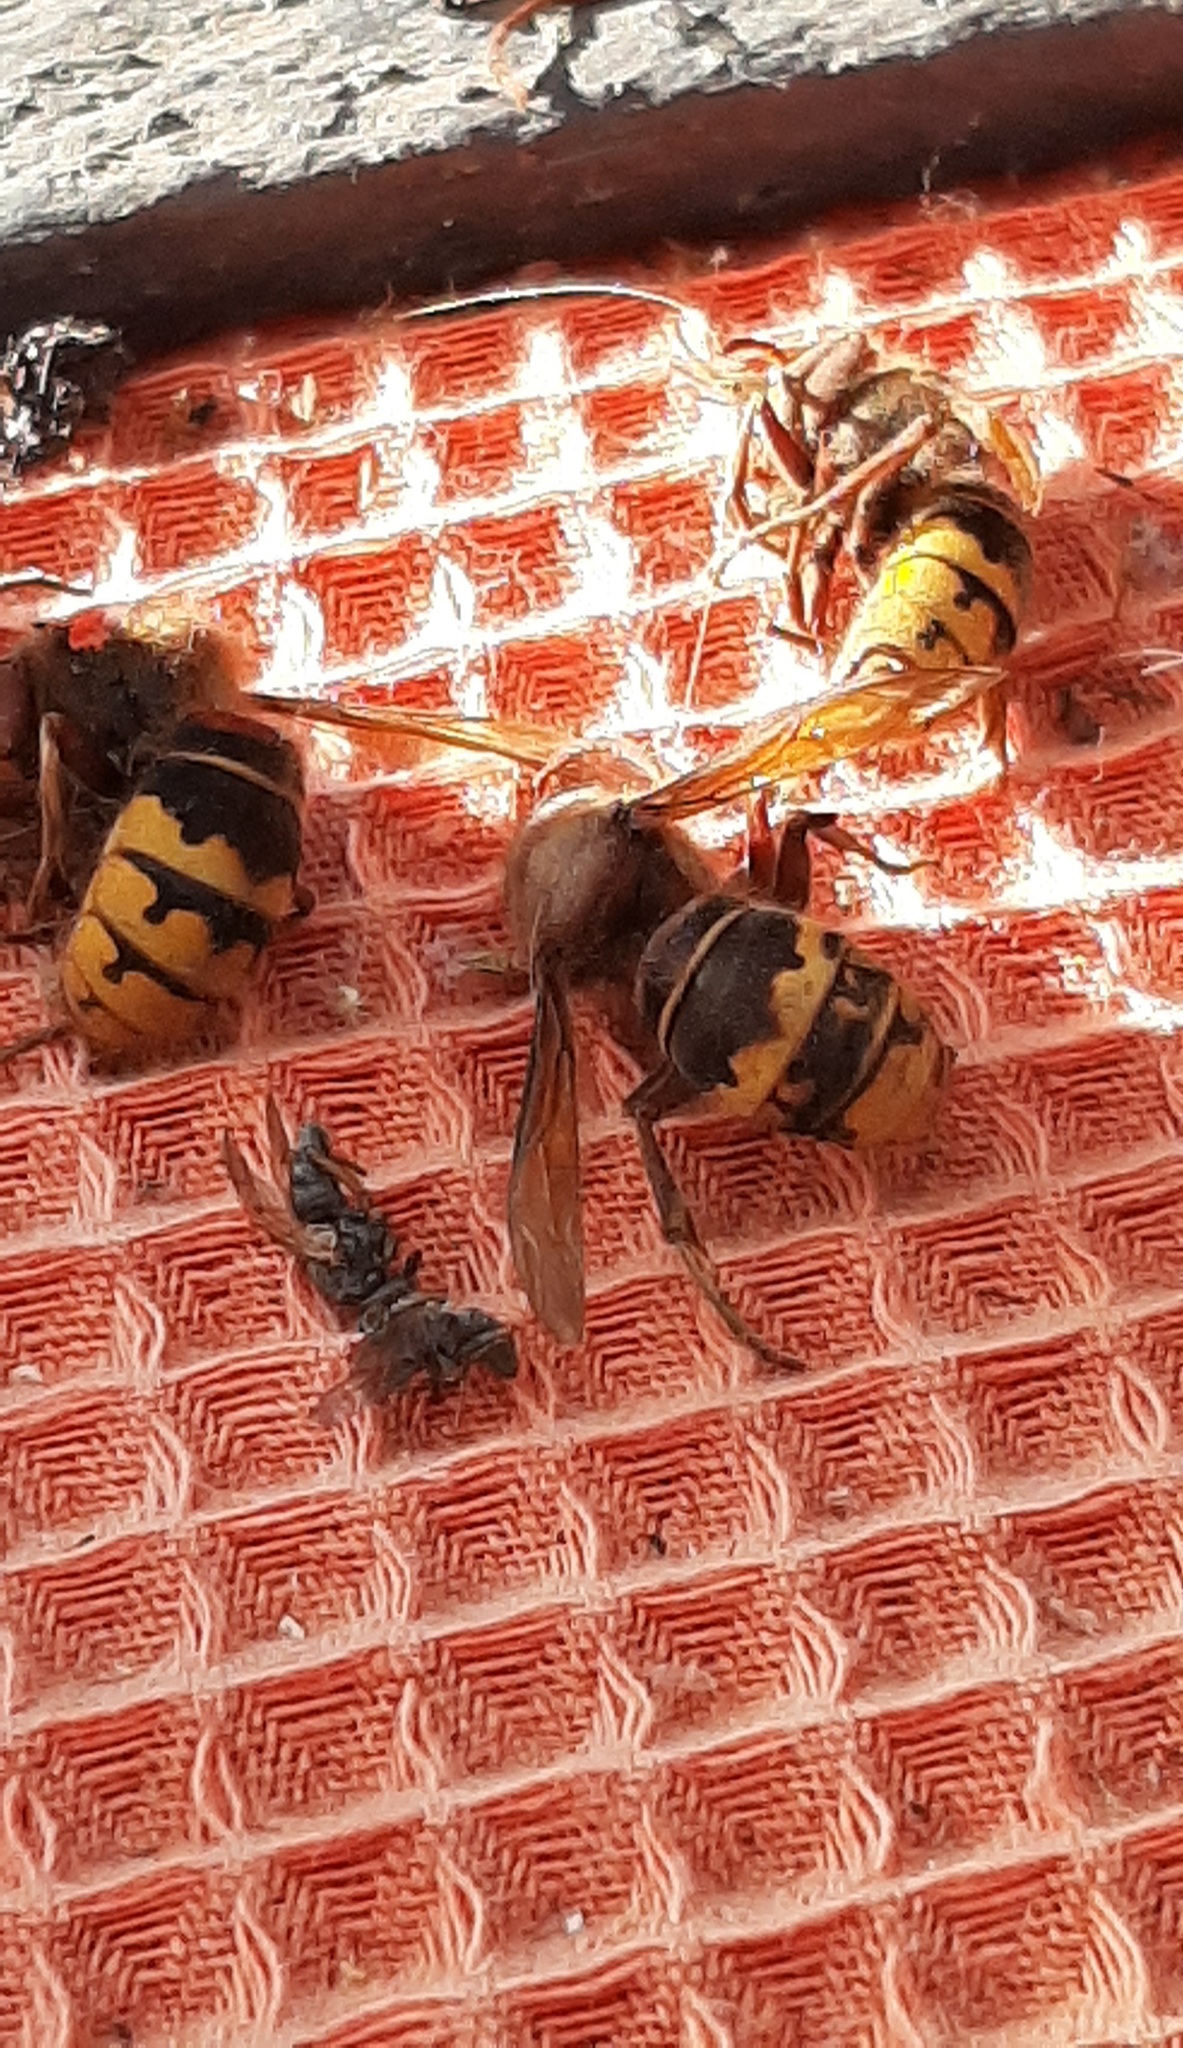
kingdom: Animalia
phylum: Arthropoda
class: Insecta
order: Hymenoptera
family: Vespidae
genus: Vespa
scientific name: Vespa crabro
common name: Hornet
